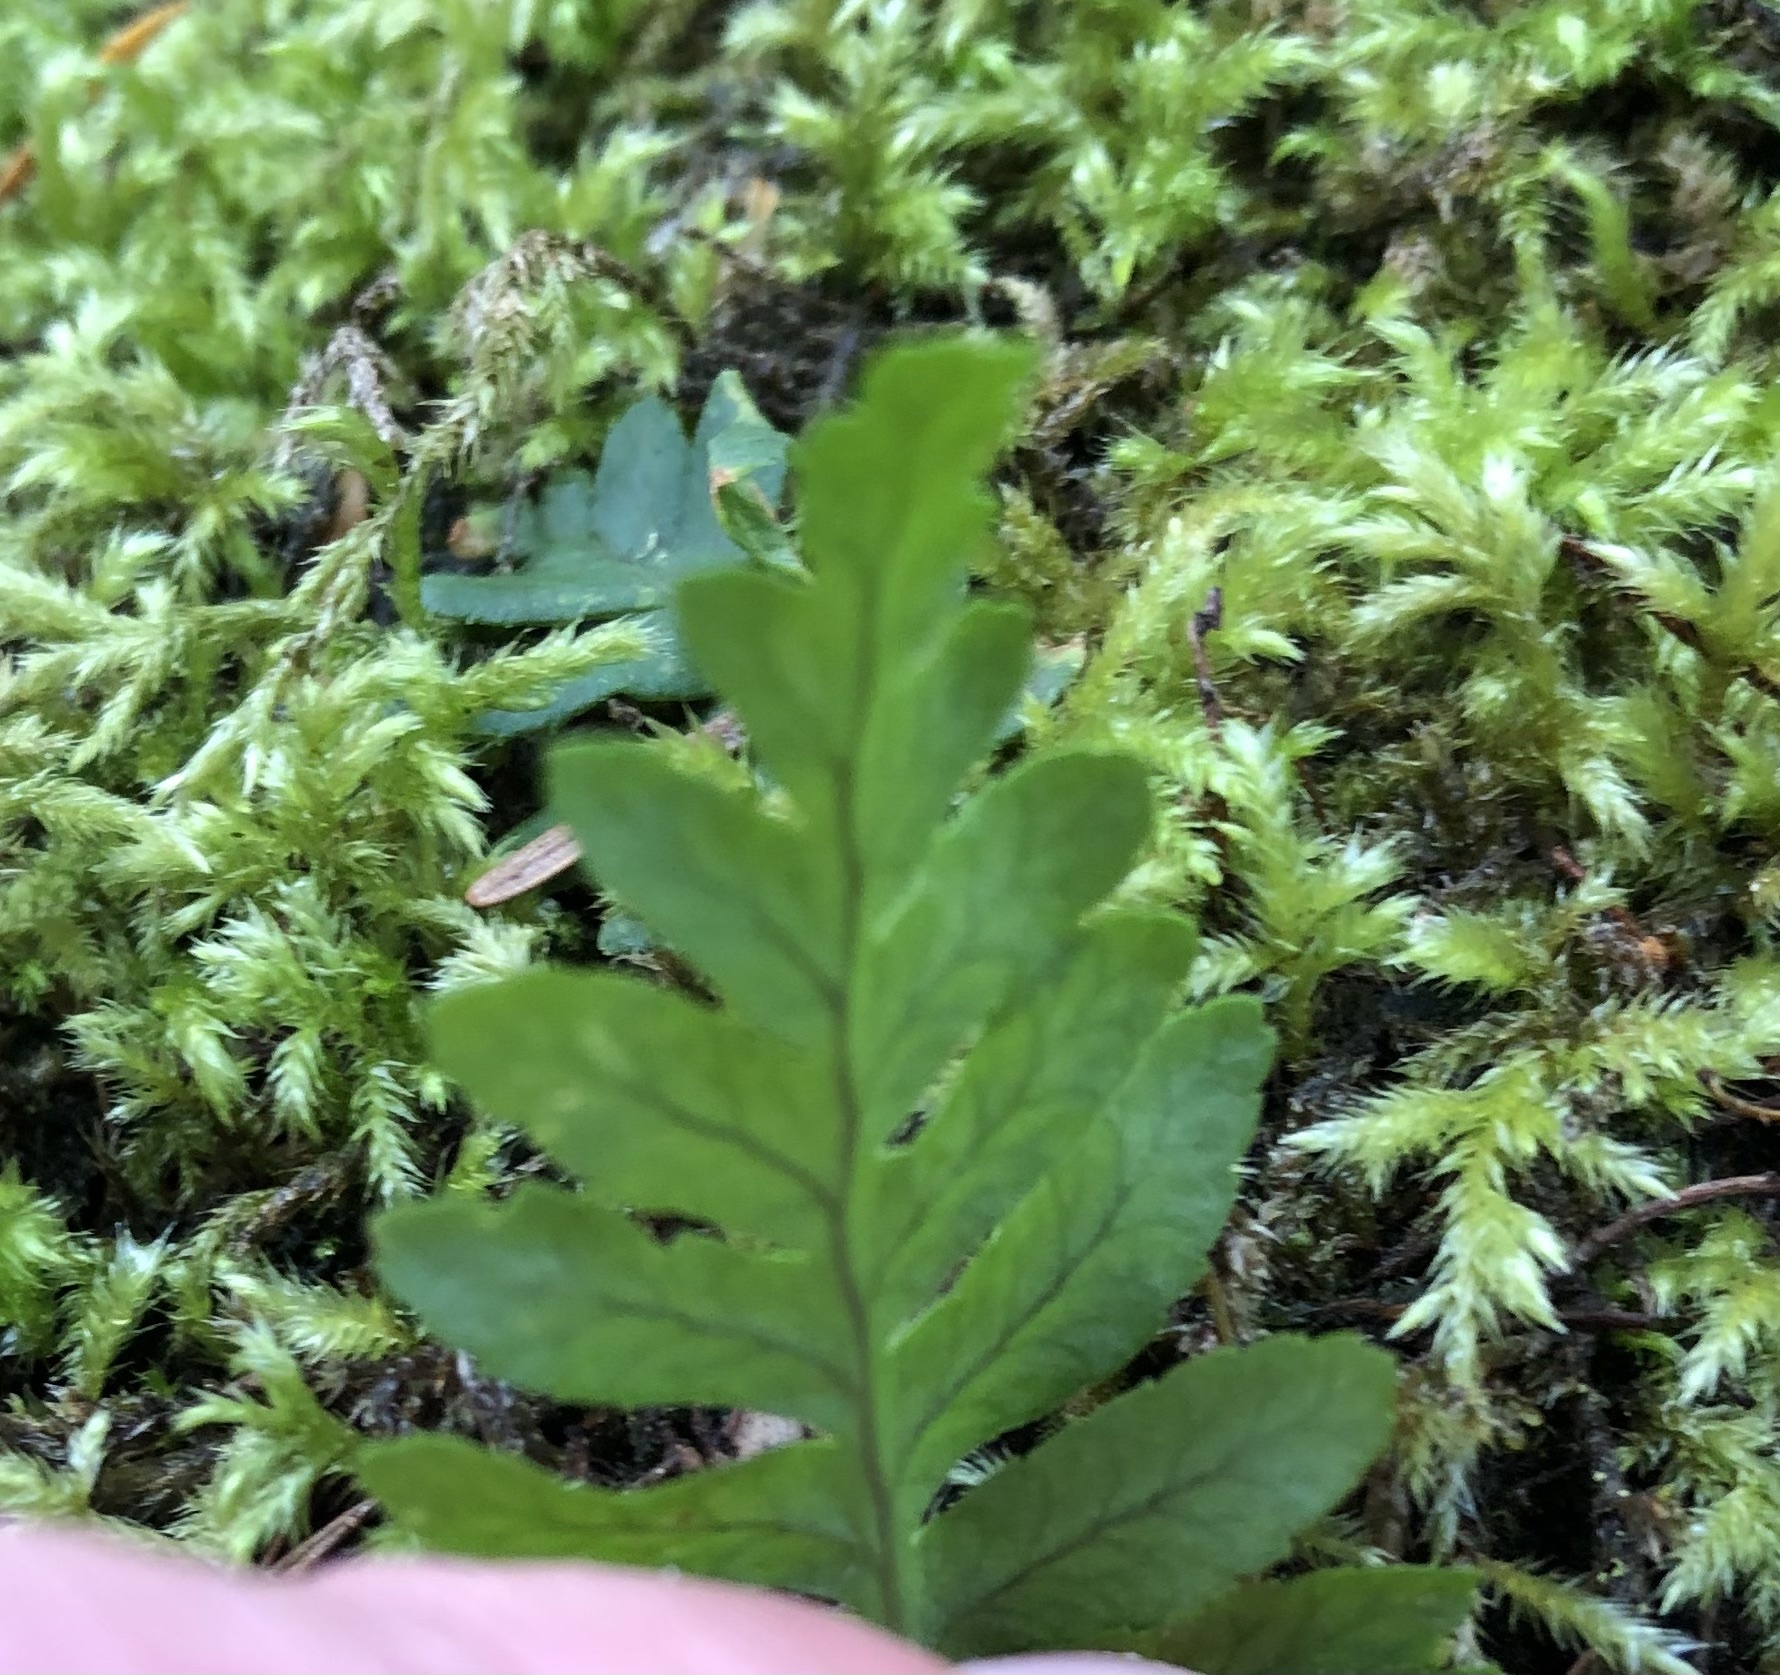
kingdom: Plantae
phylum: Tracheophyta
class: Polypodiopsida
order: Polypodiales
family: Polypodiaceae
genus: Polypodium
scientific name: Polypodium glycyrrhiza
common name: Licorice fern
